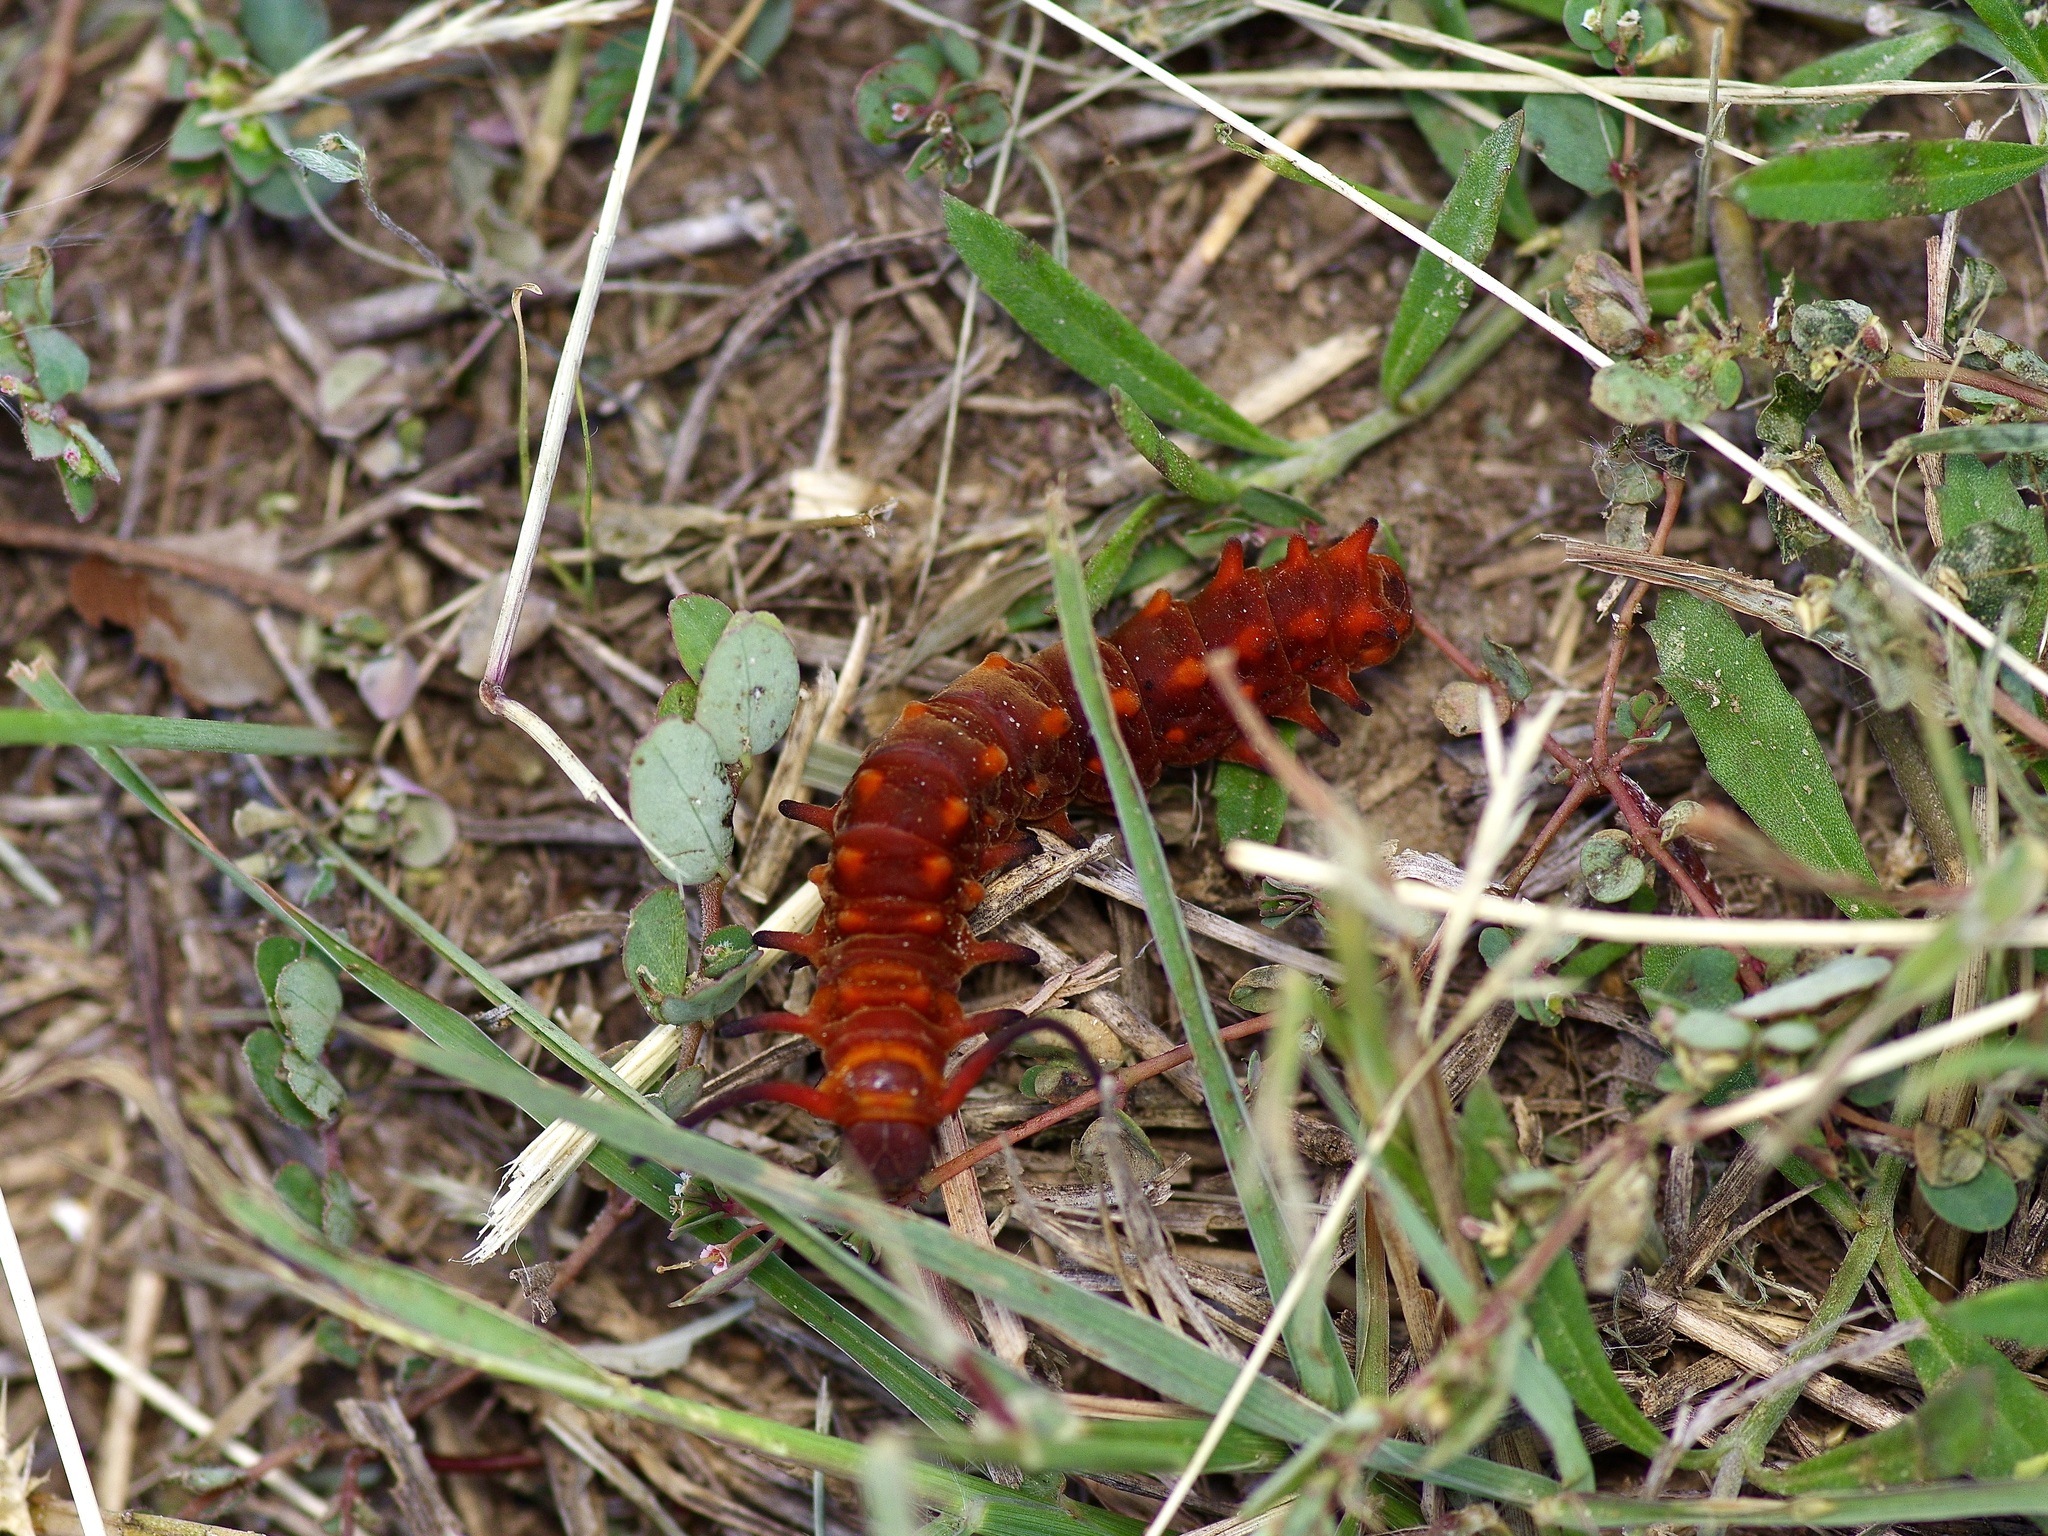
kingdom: Animalia
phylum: Arthropoda
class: Insecta
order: Lepidoptera
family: Papilionidae
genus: Battus
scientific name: Battus philenor
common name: Pipevine swallowtail
